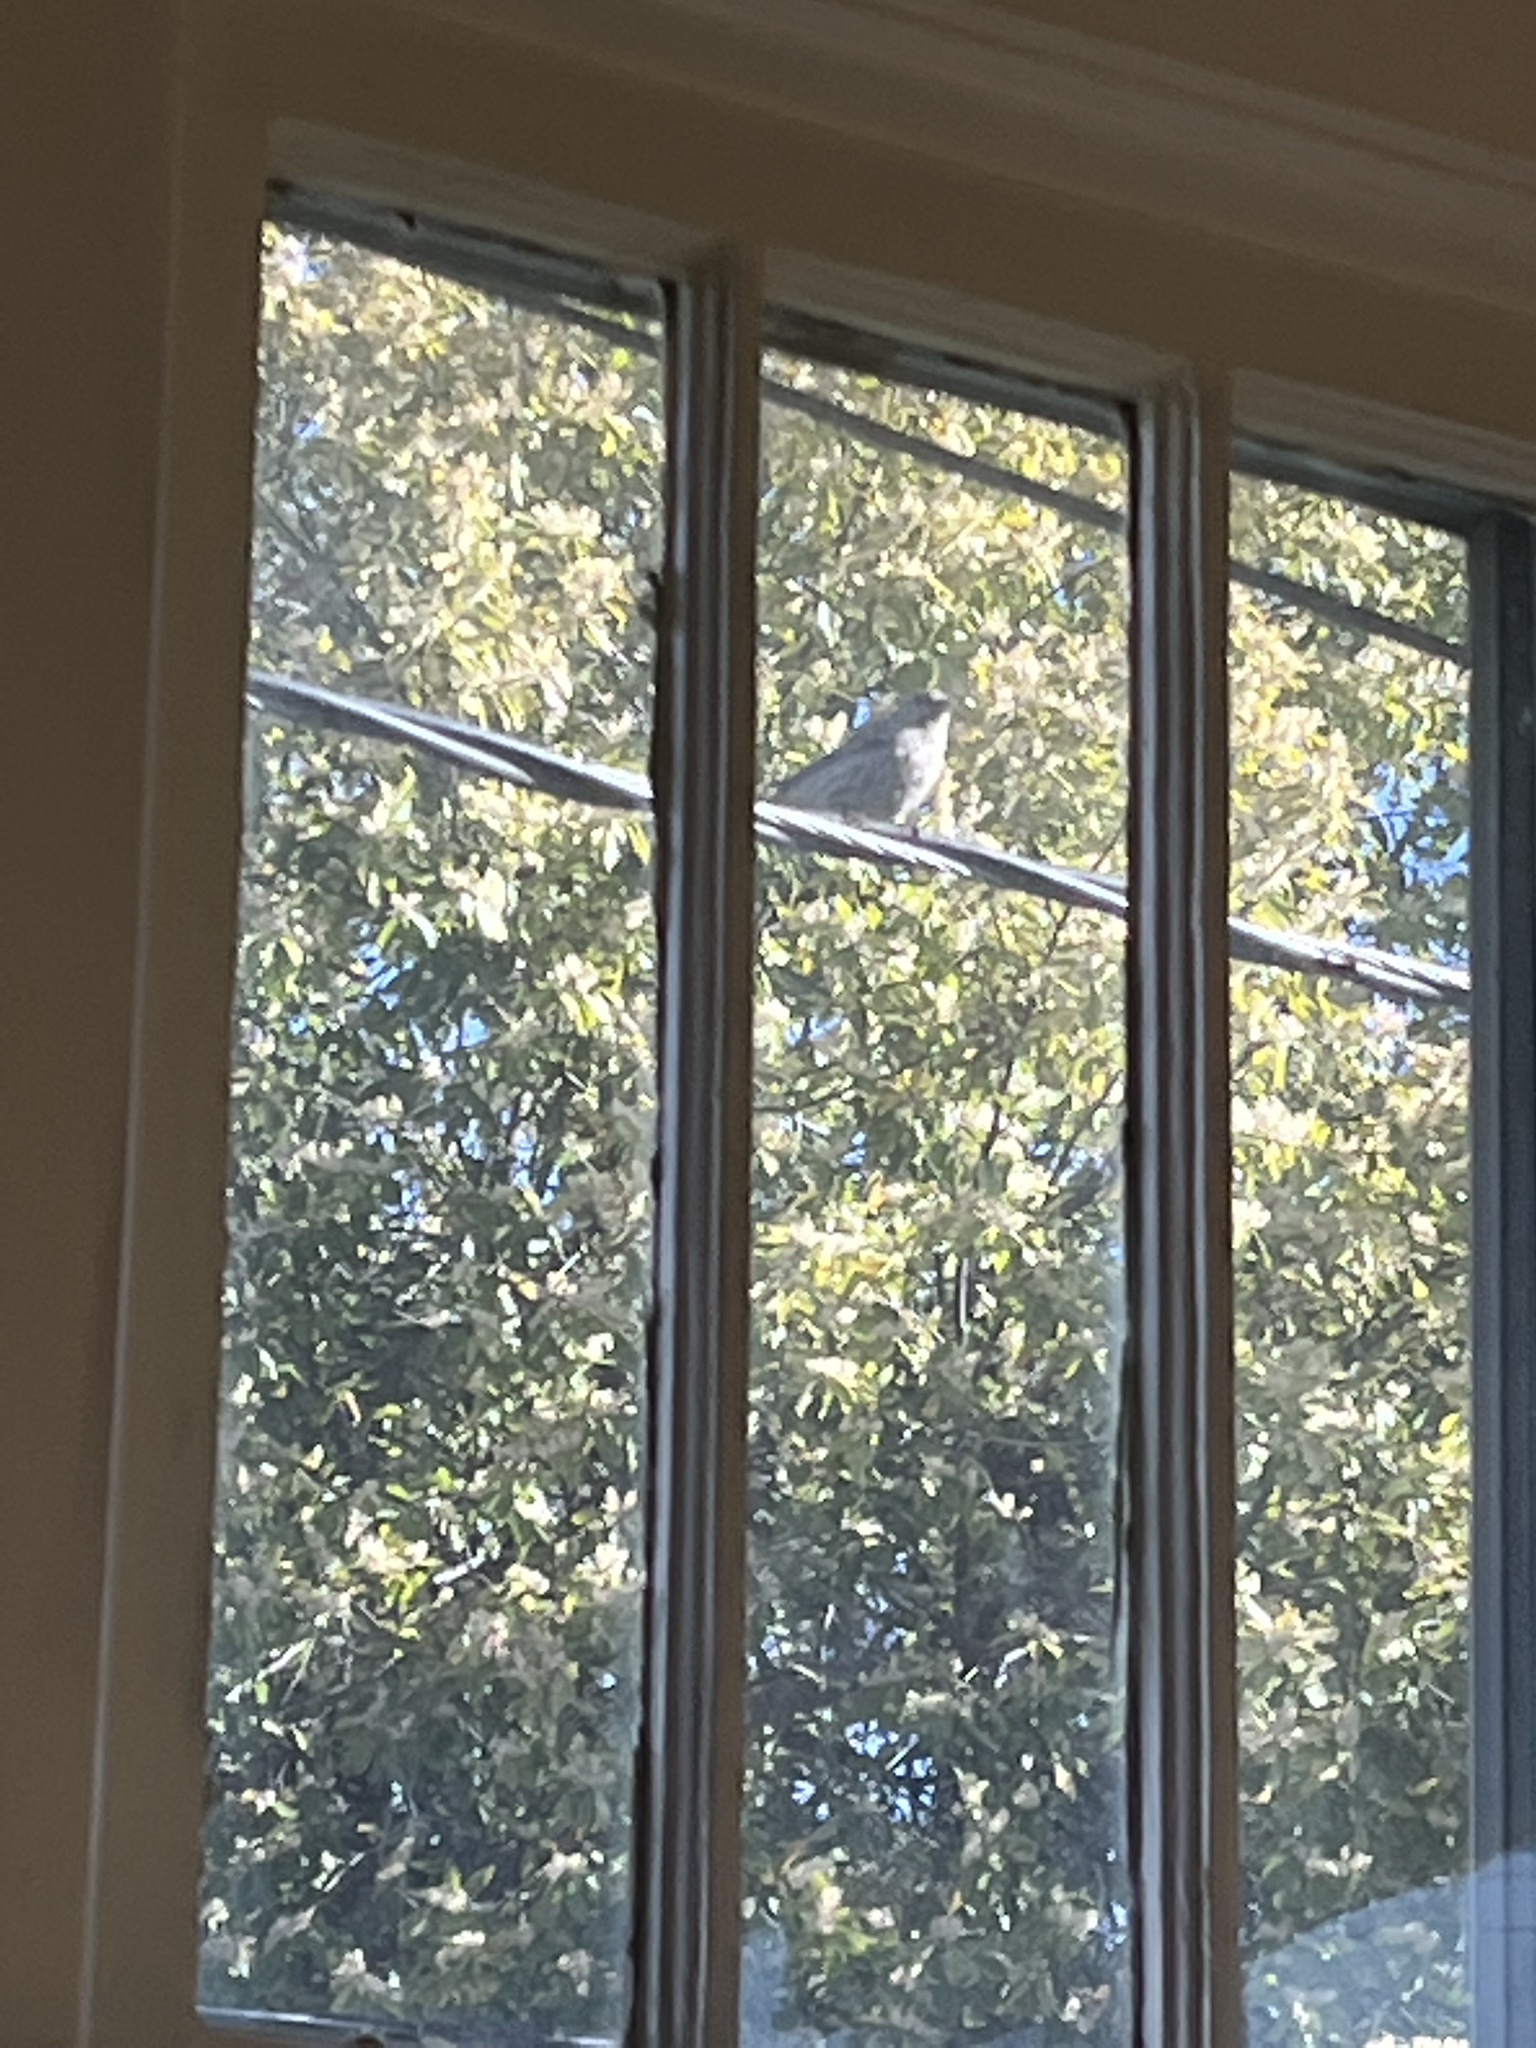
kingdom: Animalia
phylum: Chordata
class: Aves
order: Passeriformes
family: Fringillidae
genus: Haemorhous
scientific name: Haemorhous mexicanus
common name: House finch
